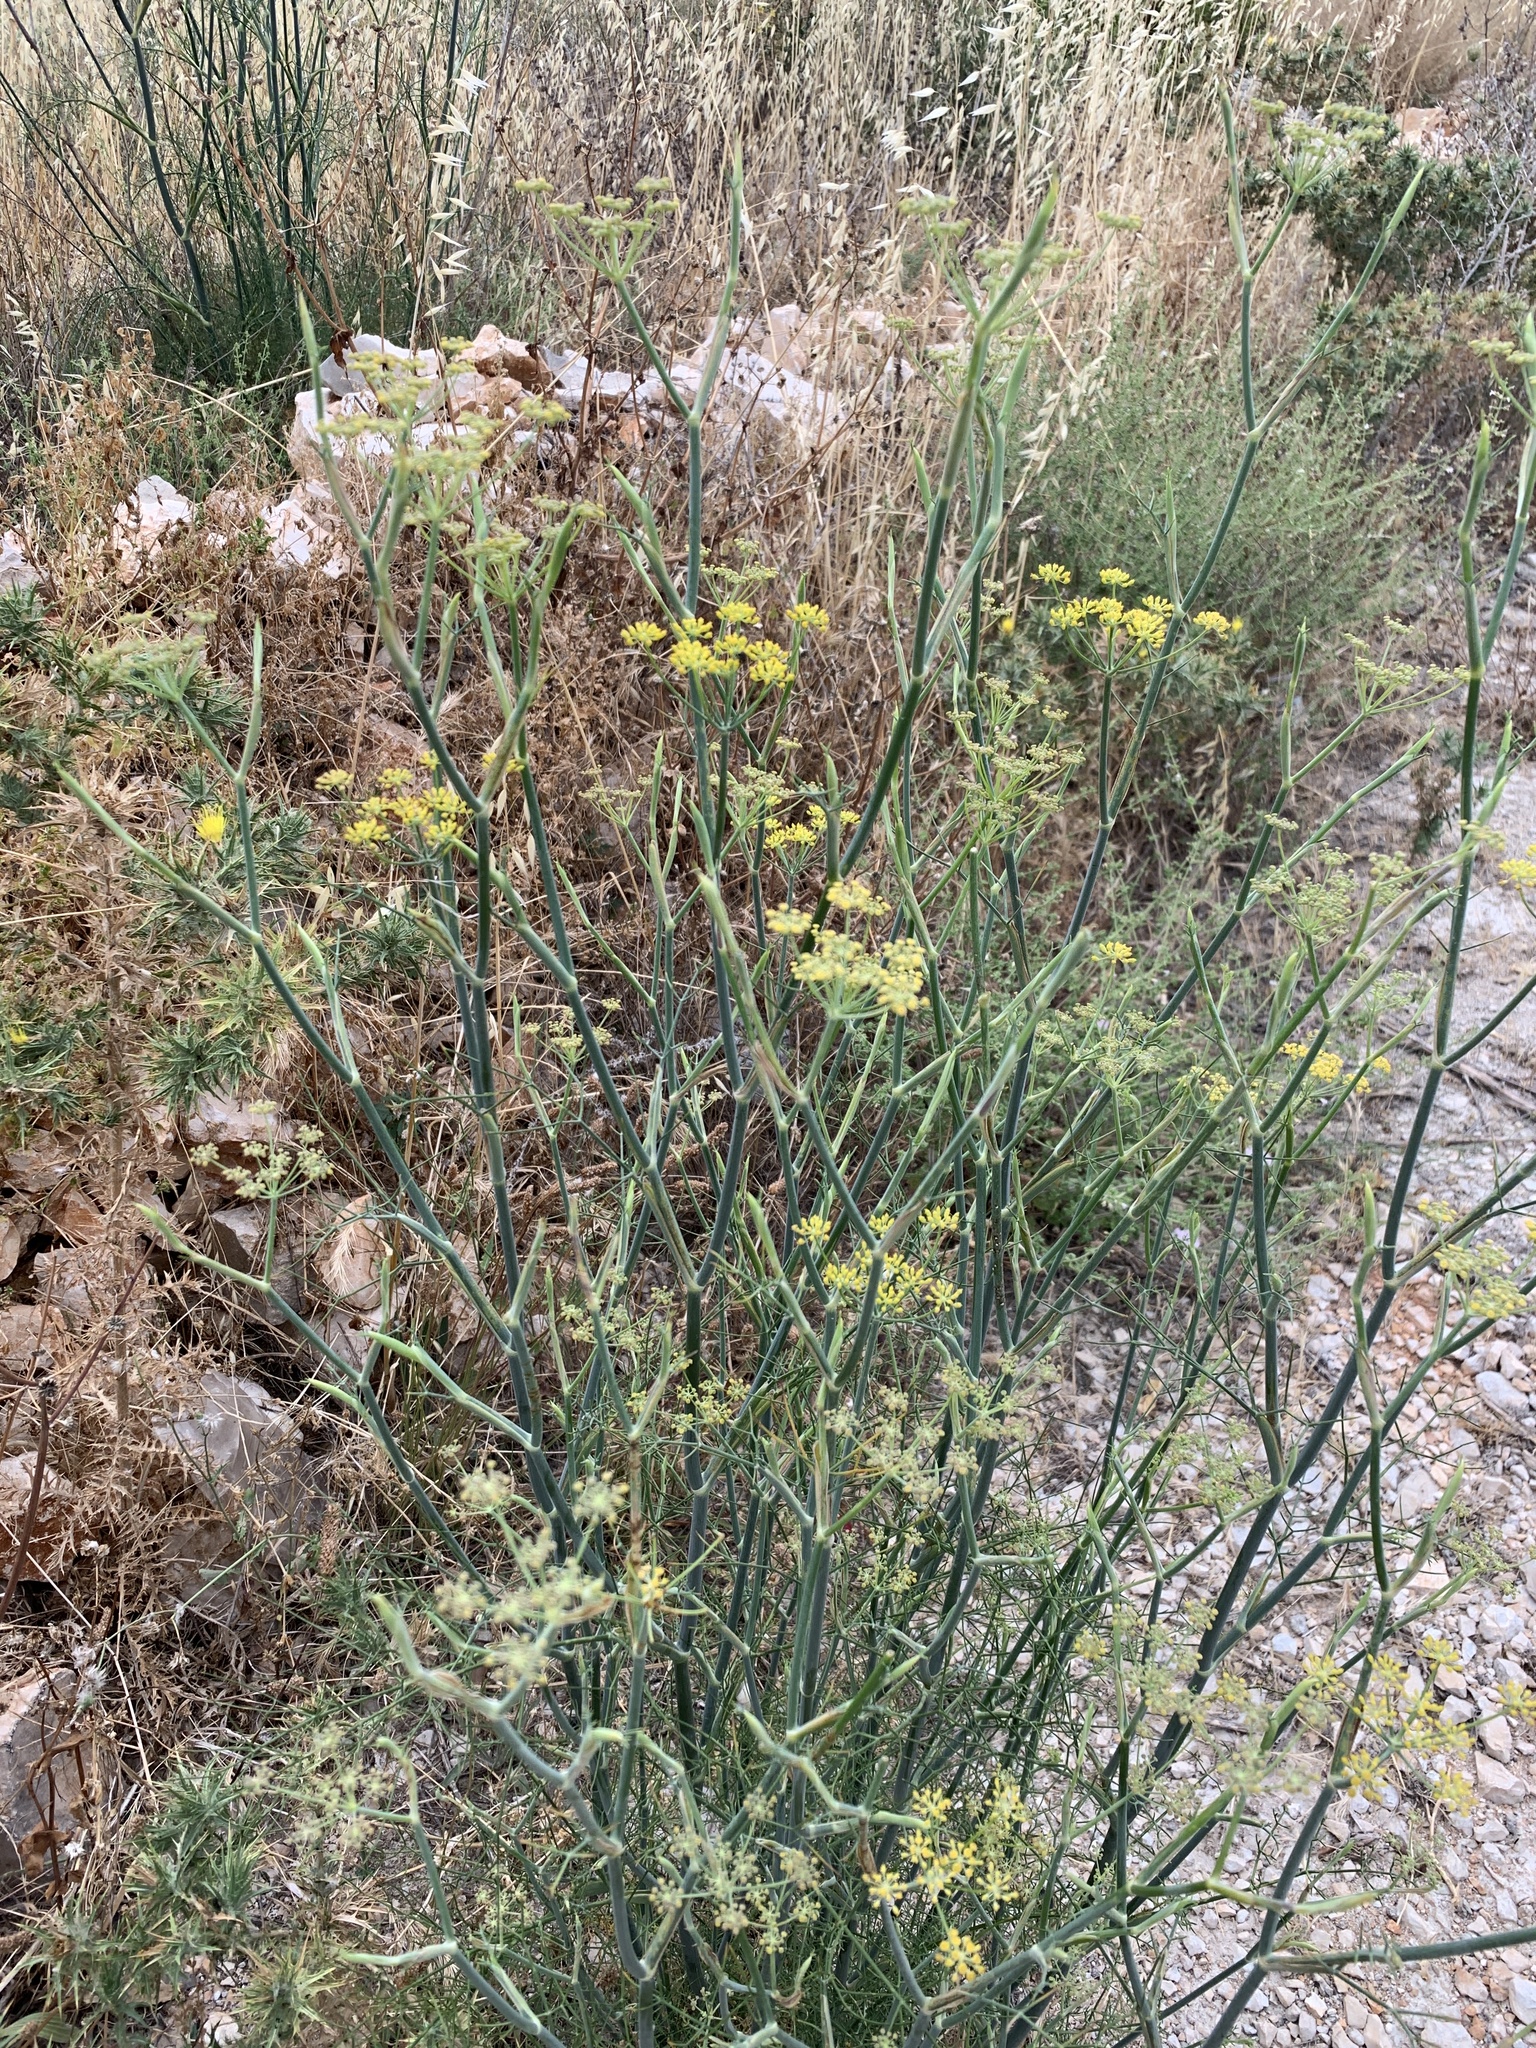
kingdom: Plantae
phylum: Tracheophyta
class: Magnoliopsida
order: Apiales
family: Apiaceae
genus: Foeniculum
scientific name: Foeniculum vulgare
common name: Fennel
